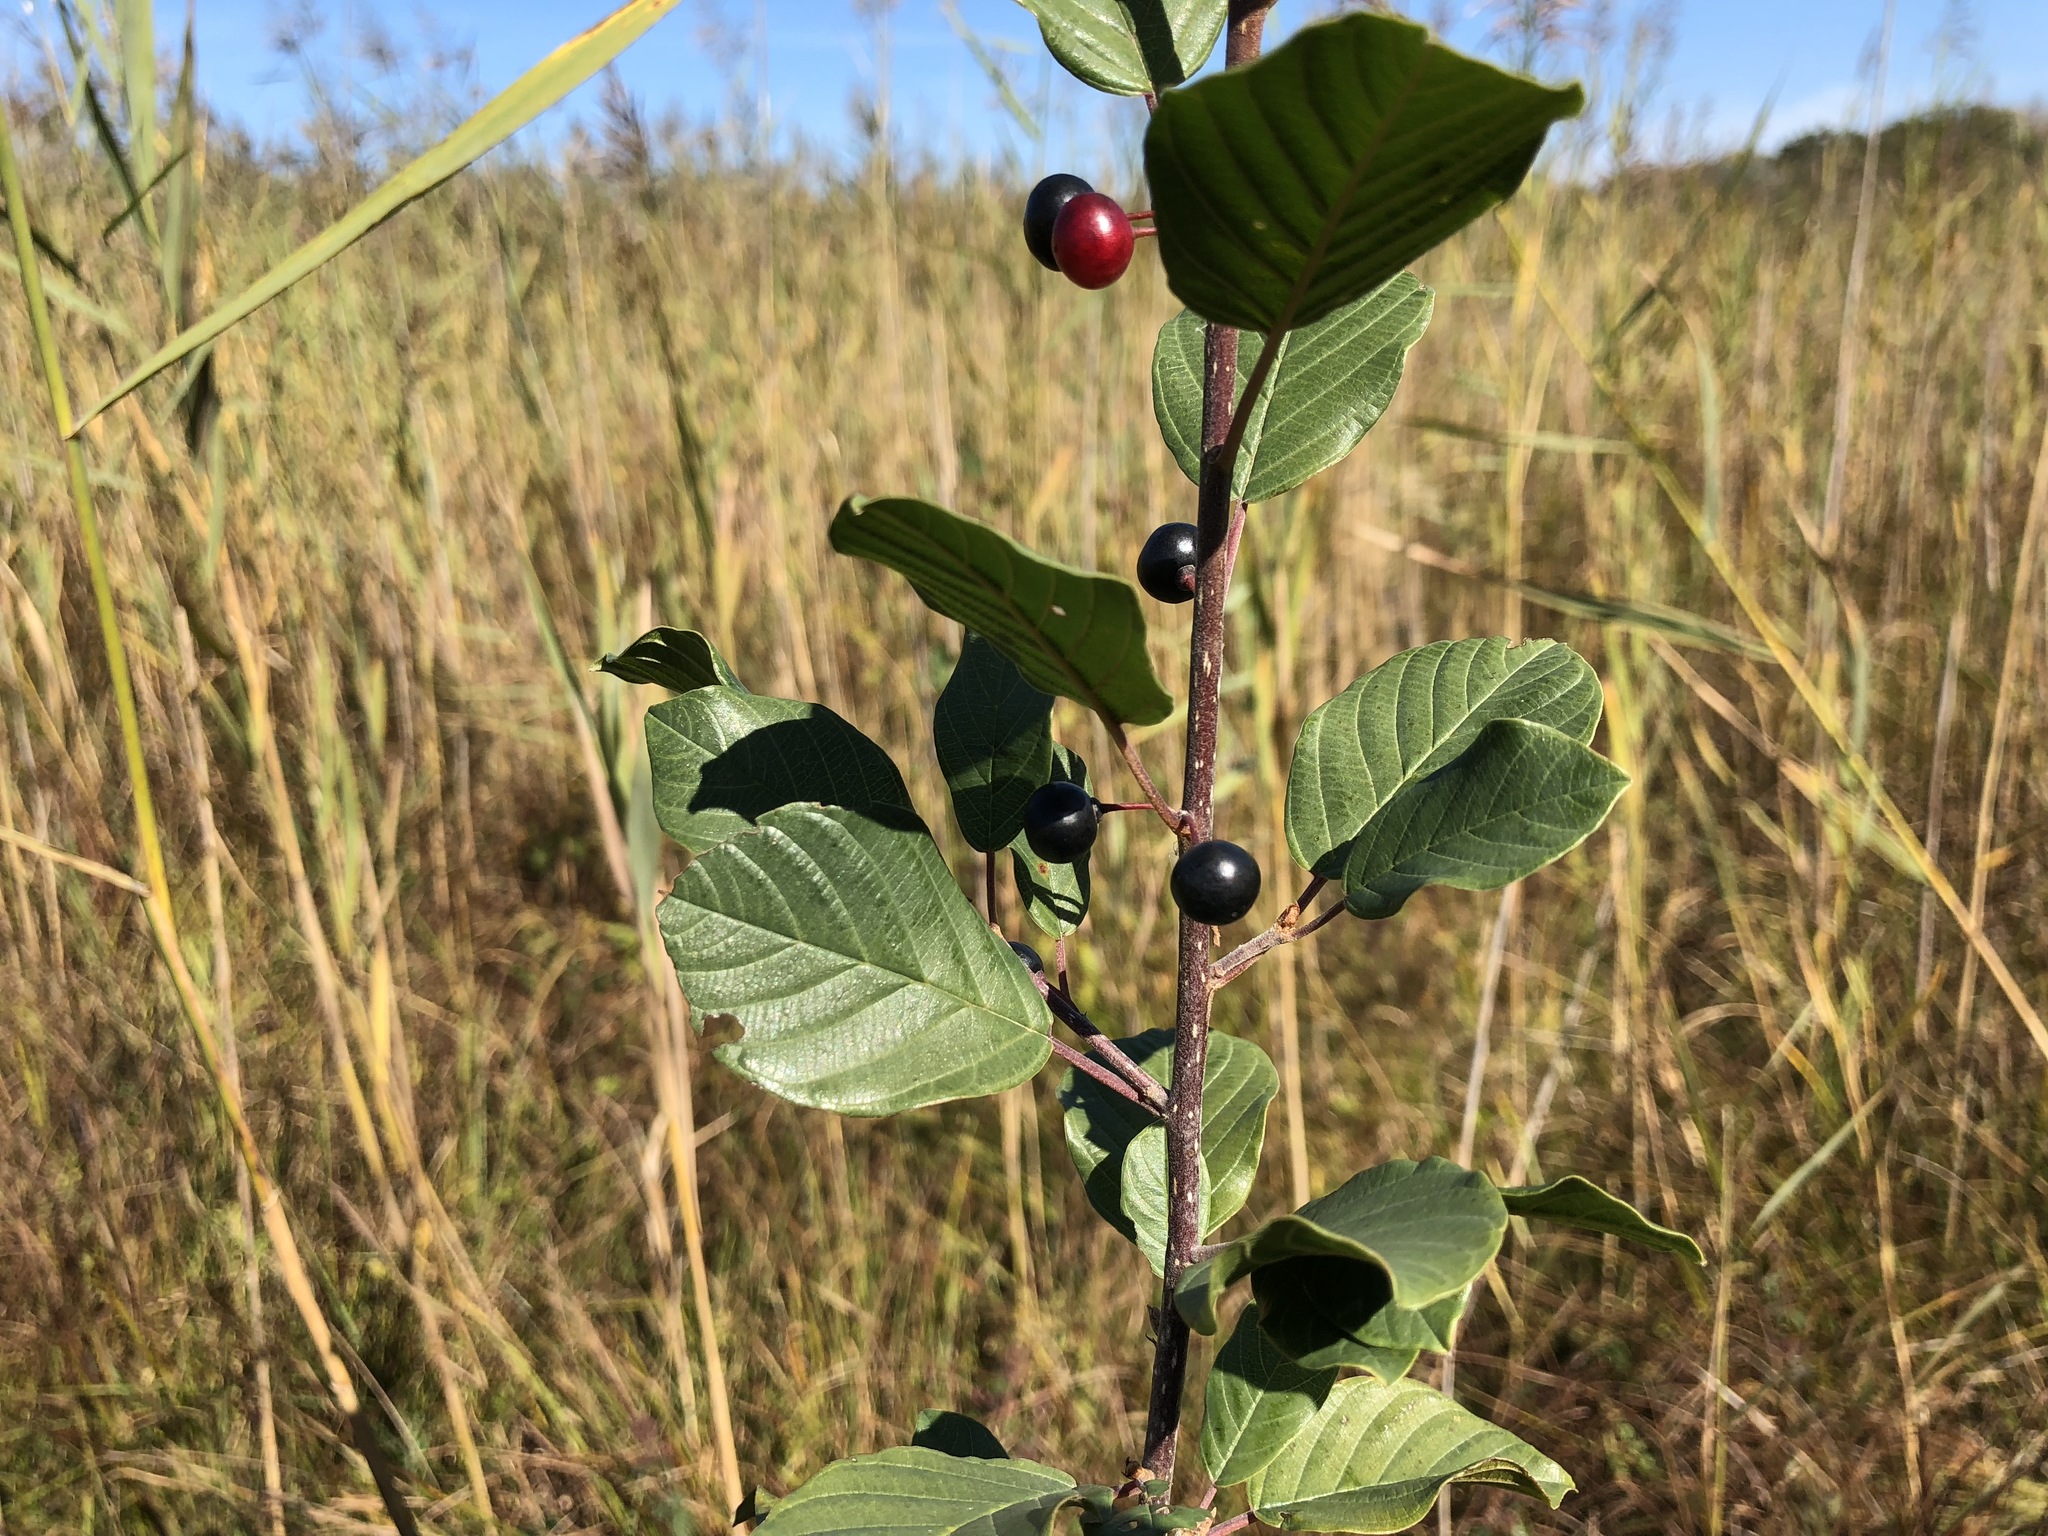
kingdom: Plantae
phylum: Tracheophyta
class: Magnoliopsida
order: Rosales
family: Rhamnaceae
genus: Frangula
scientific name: Frangula alnus
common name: Alder buckthorn
